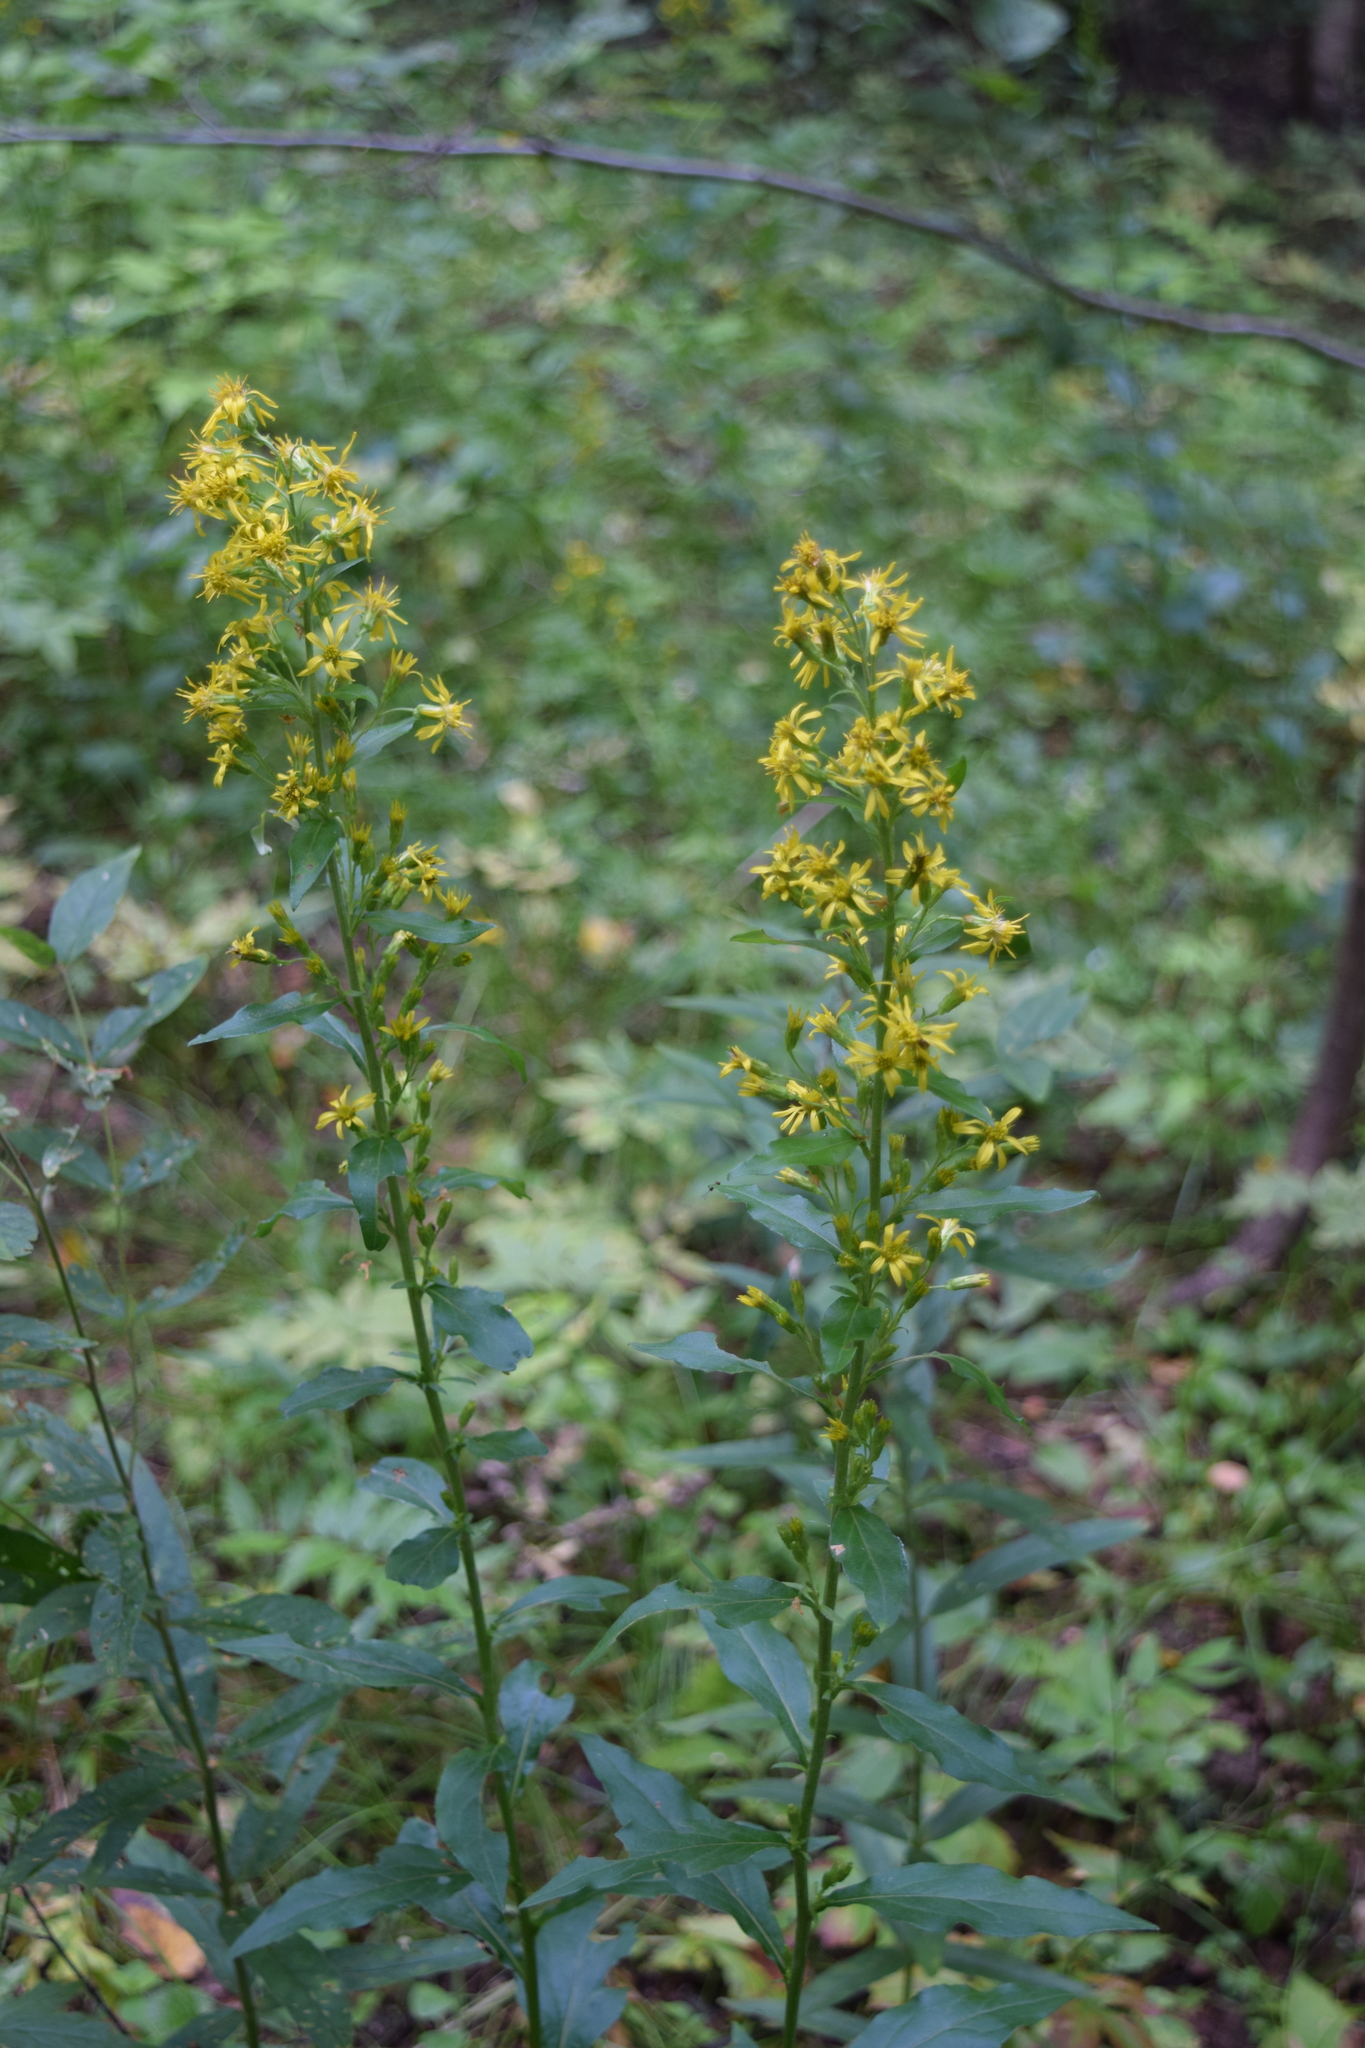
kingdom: Plantae
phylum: Tracheophyta
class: Magnoliopsida
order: Asterales
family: Asteraceae
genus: Solidago
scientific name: Solidago virgaurea
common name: Goldenrod
